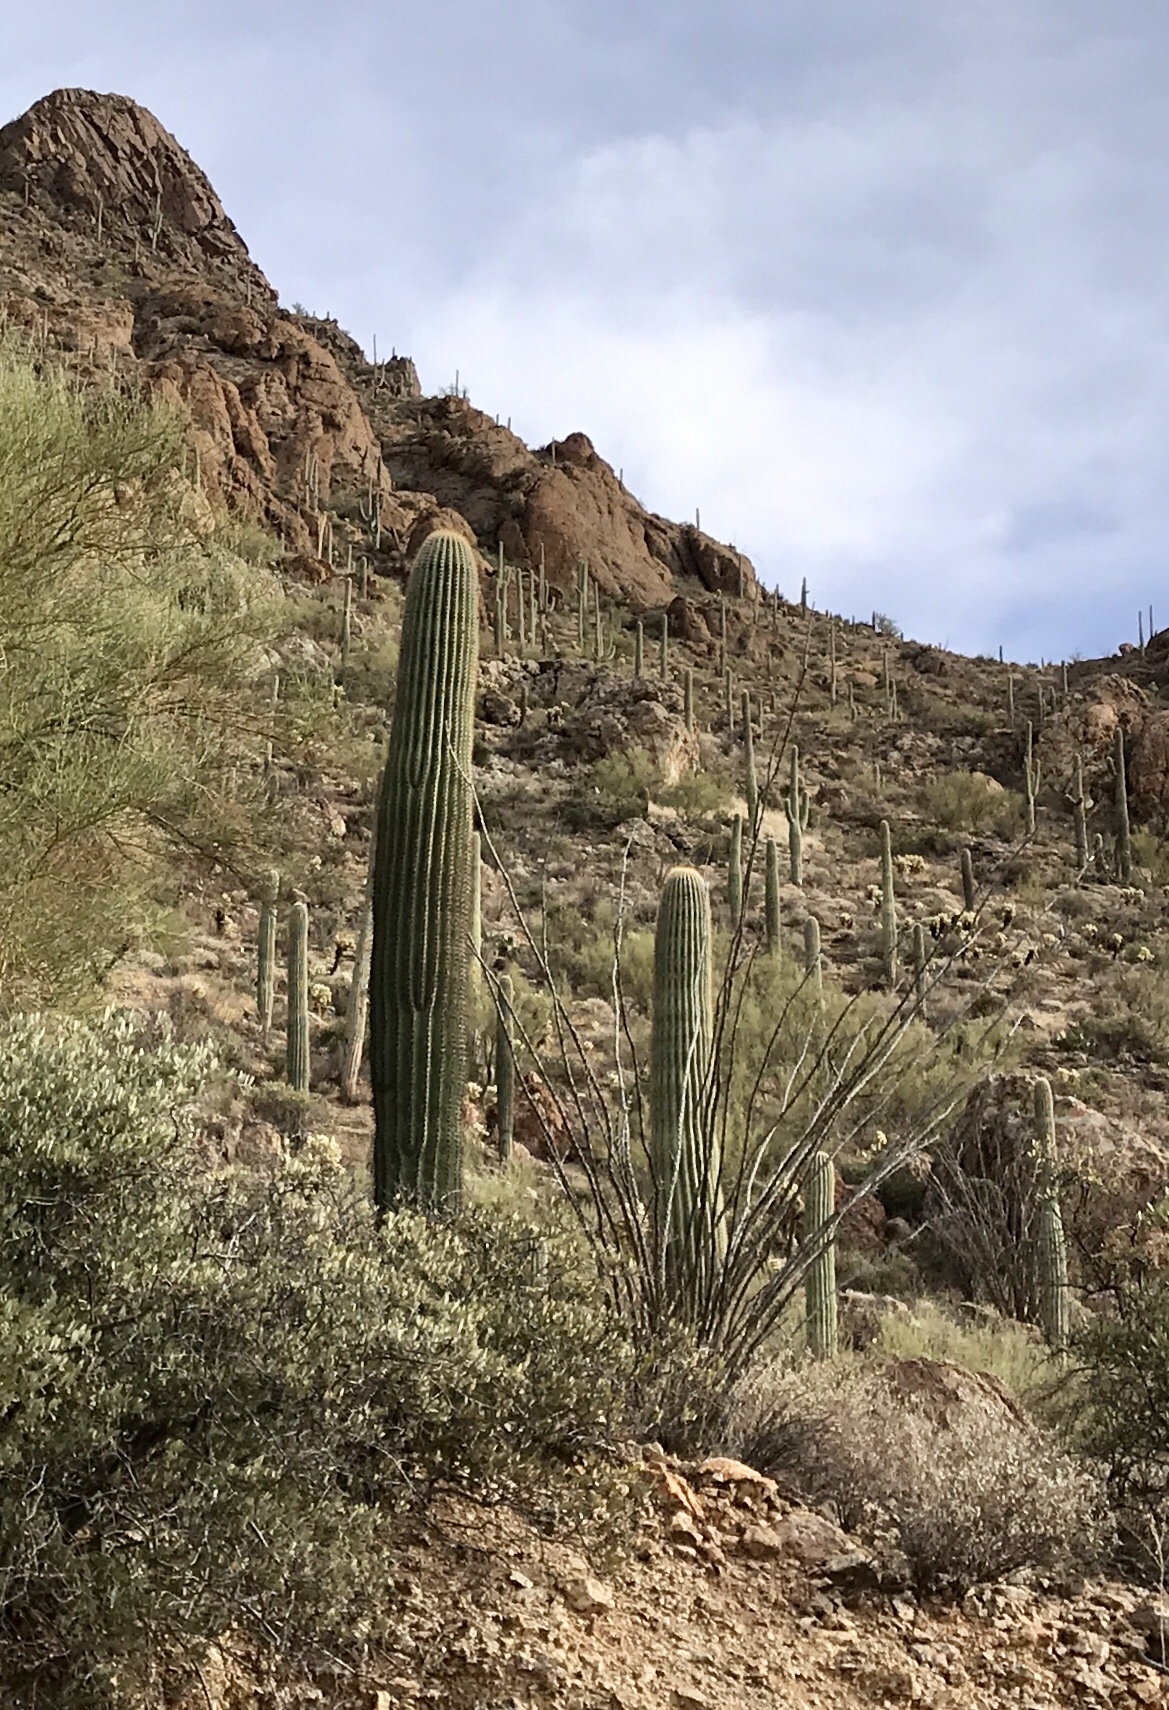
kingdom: Plantae
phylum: Tracheophyta
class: Magnoliopsida
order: Caryophyllales
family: Cactaceae
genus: Carnegiea
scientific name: Carnegiea gigantea
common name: Saguaro
